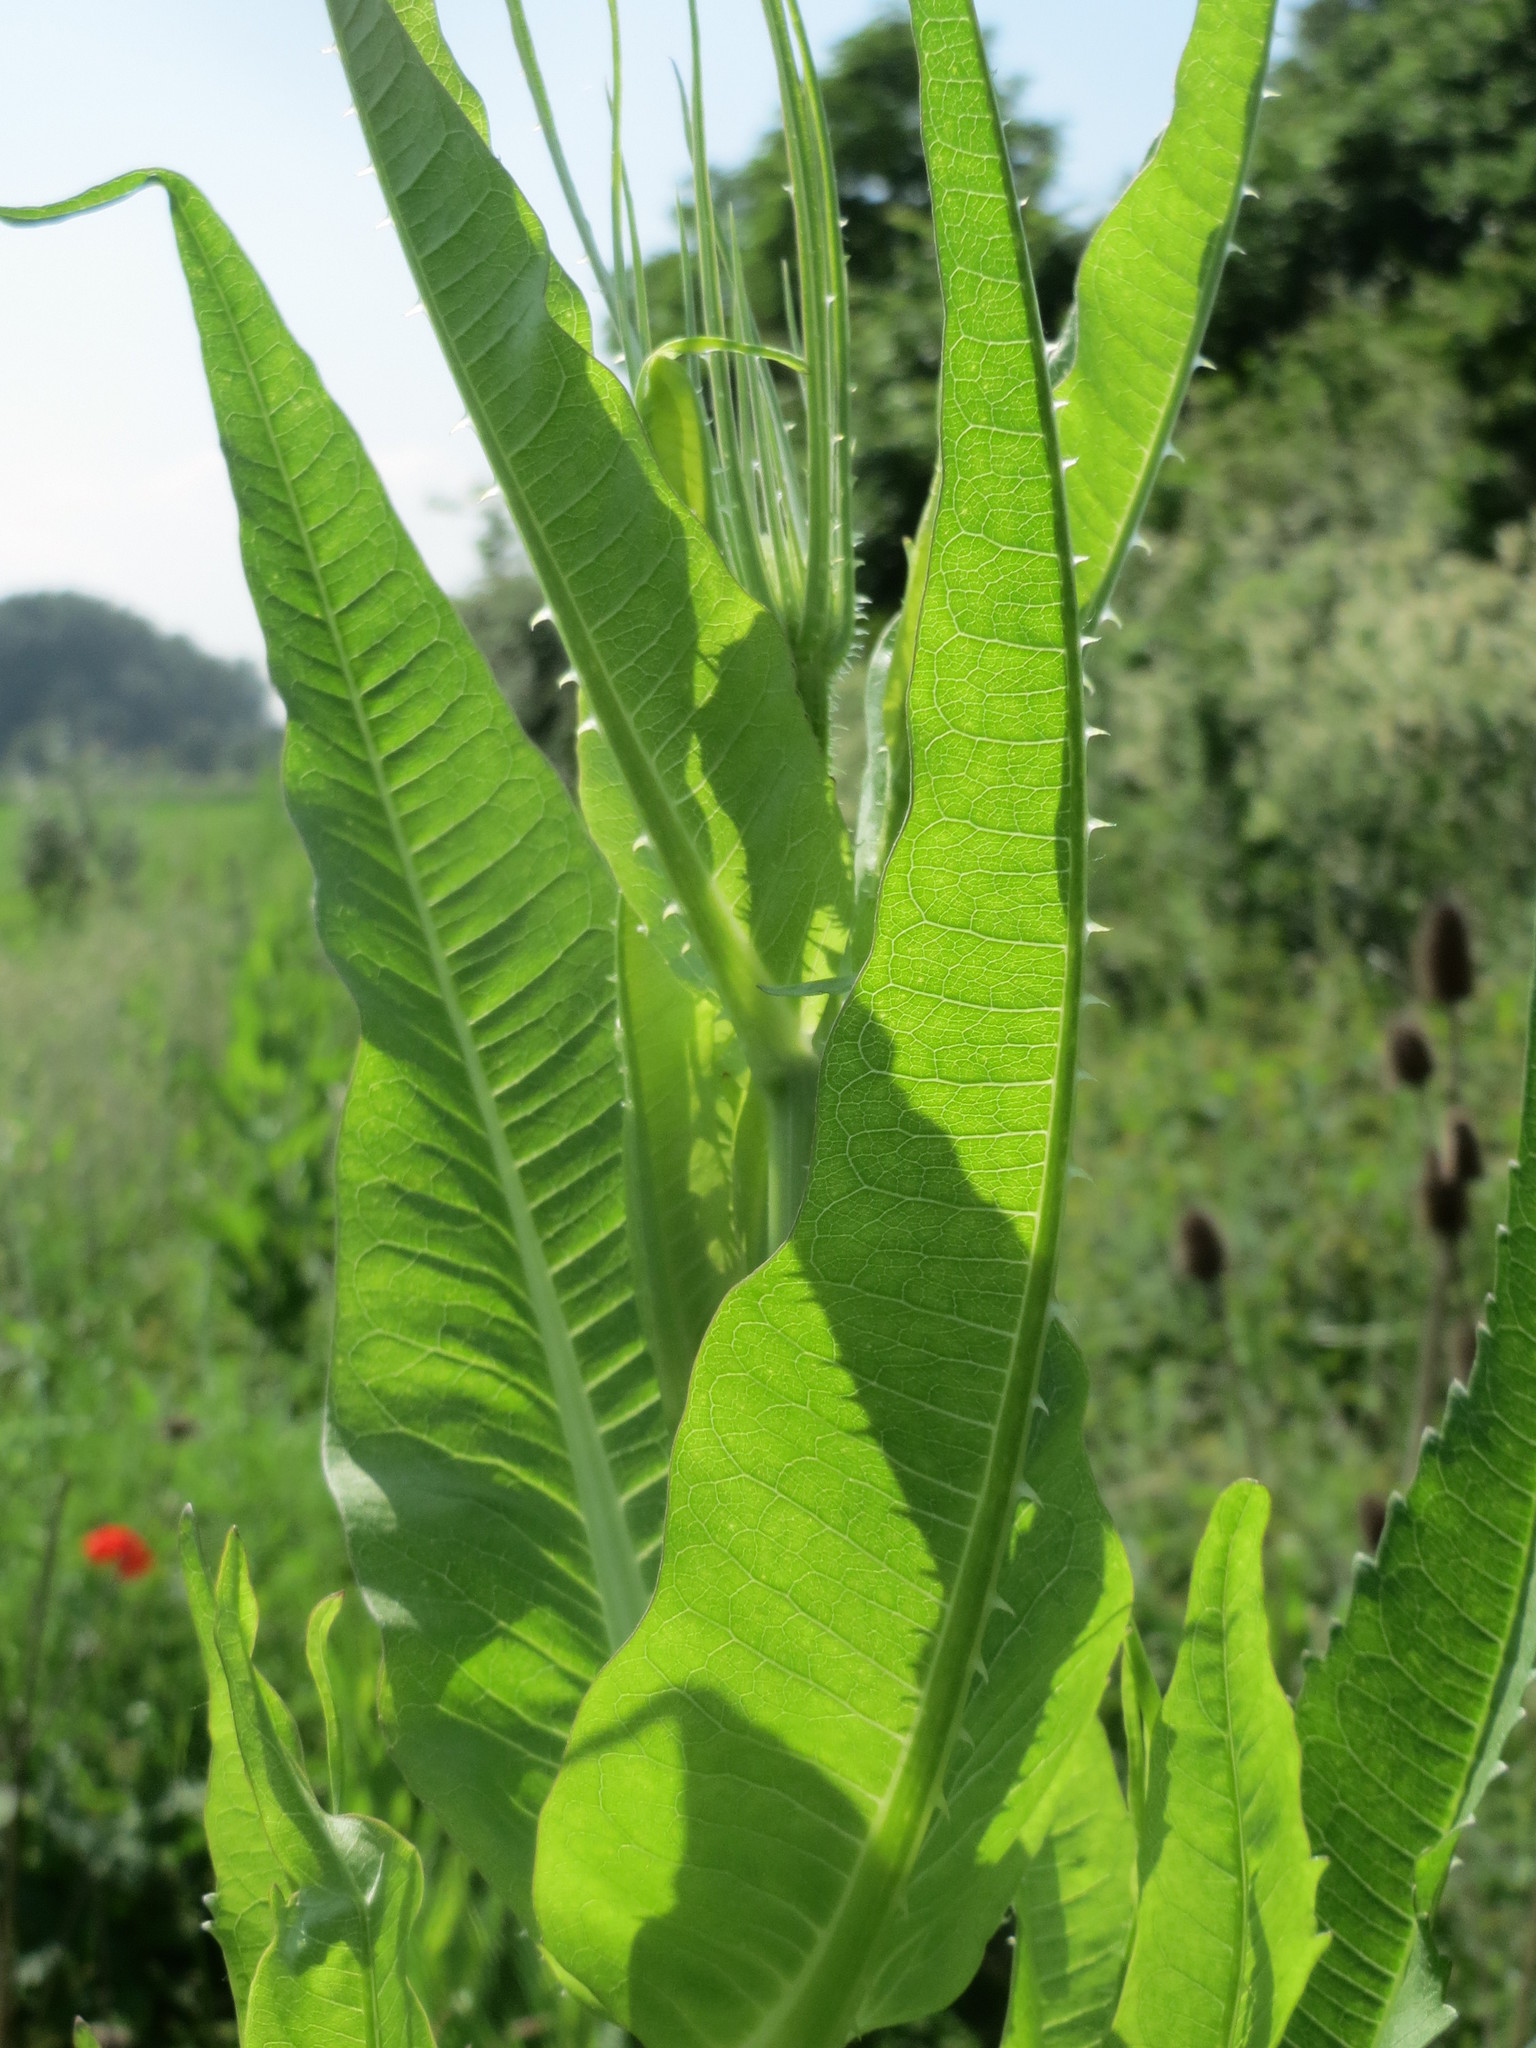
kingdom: Plantae
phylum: Tracheophyta
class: Magnoliopsida
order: Dipsacales
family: Caprifoliaceae
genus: Dipsacus
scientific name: Dipsacus fullonum
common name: Teasel
